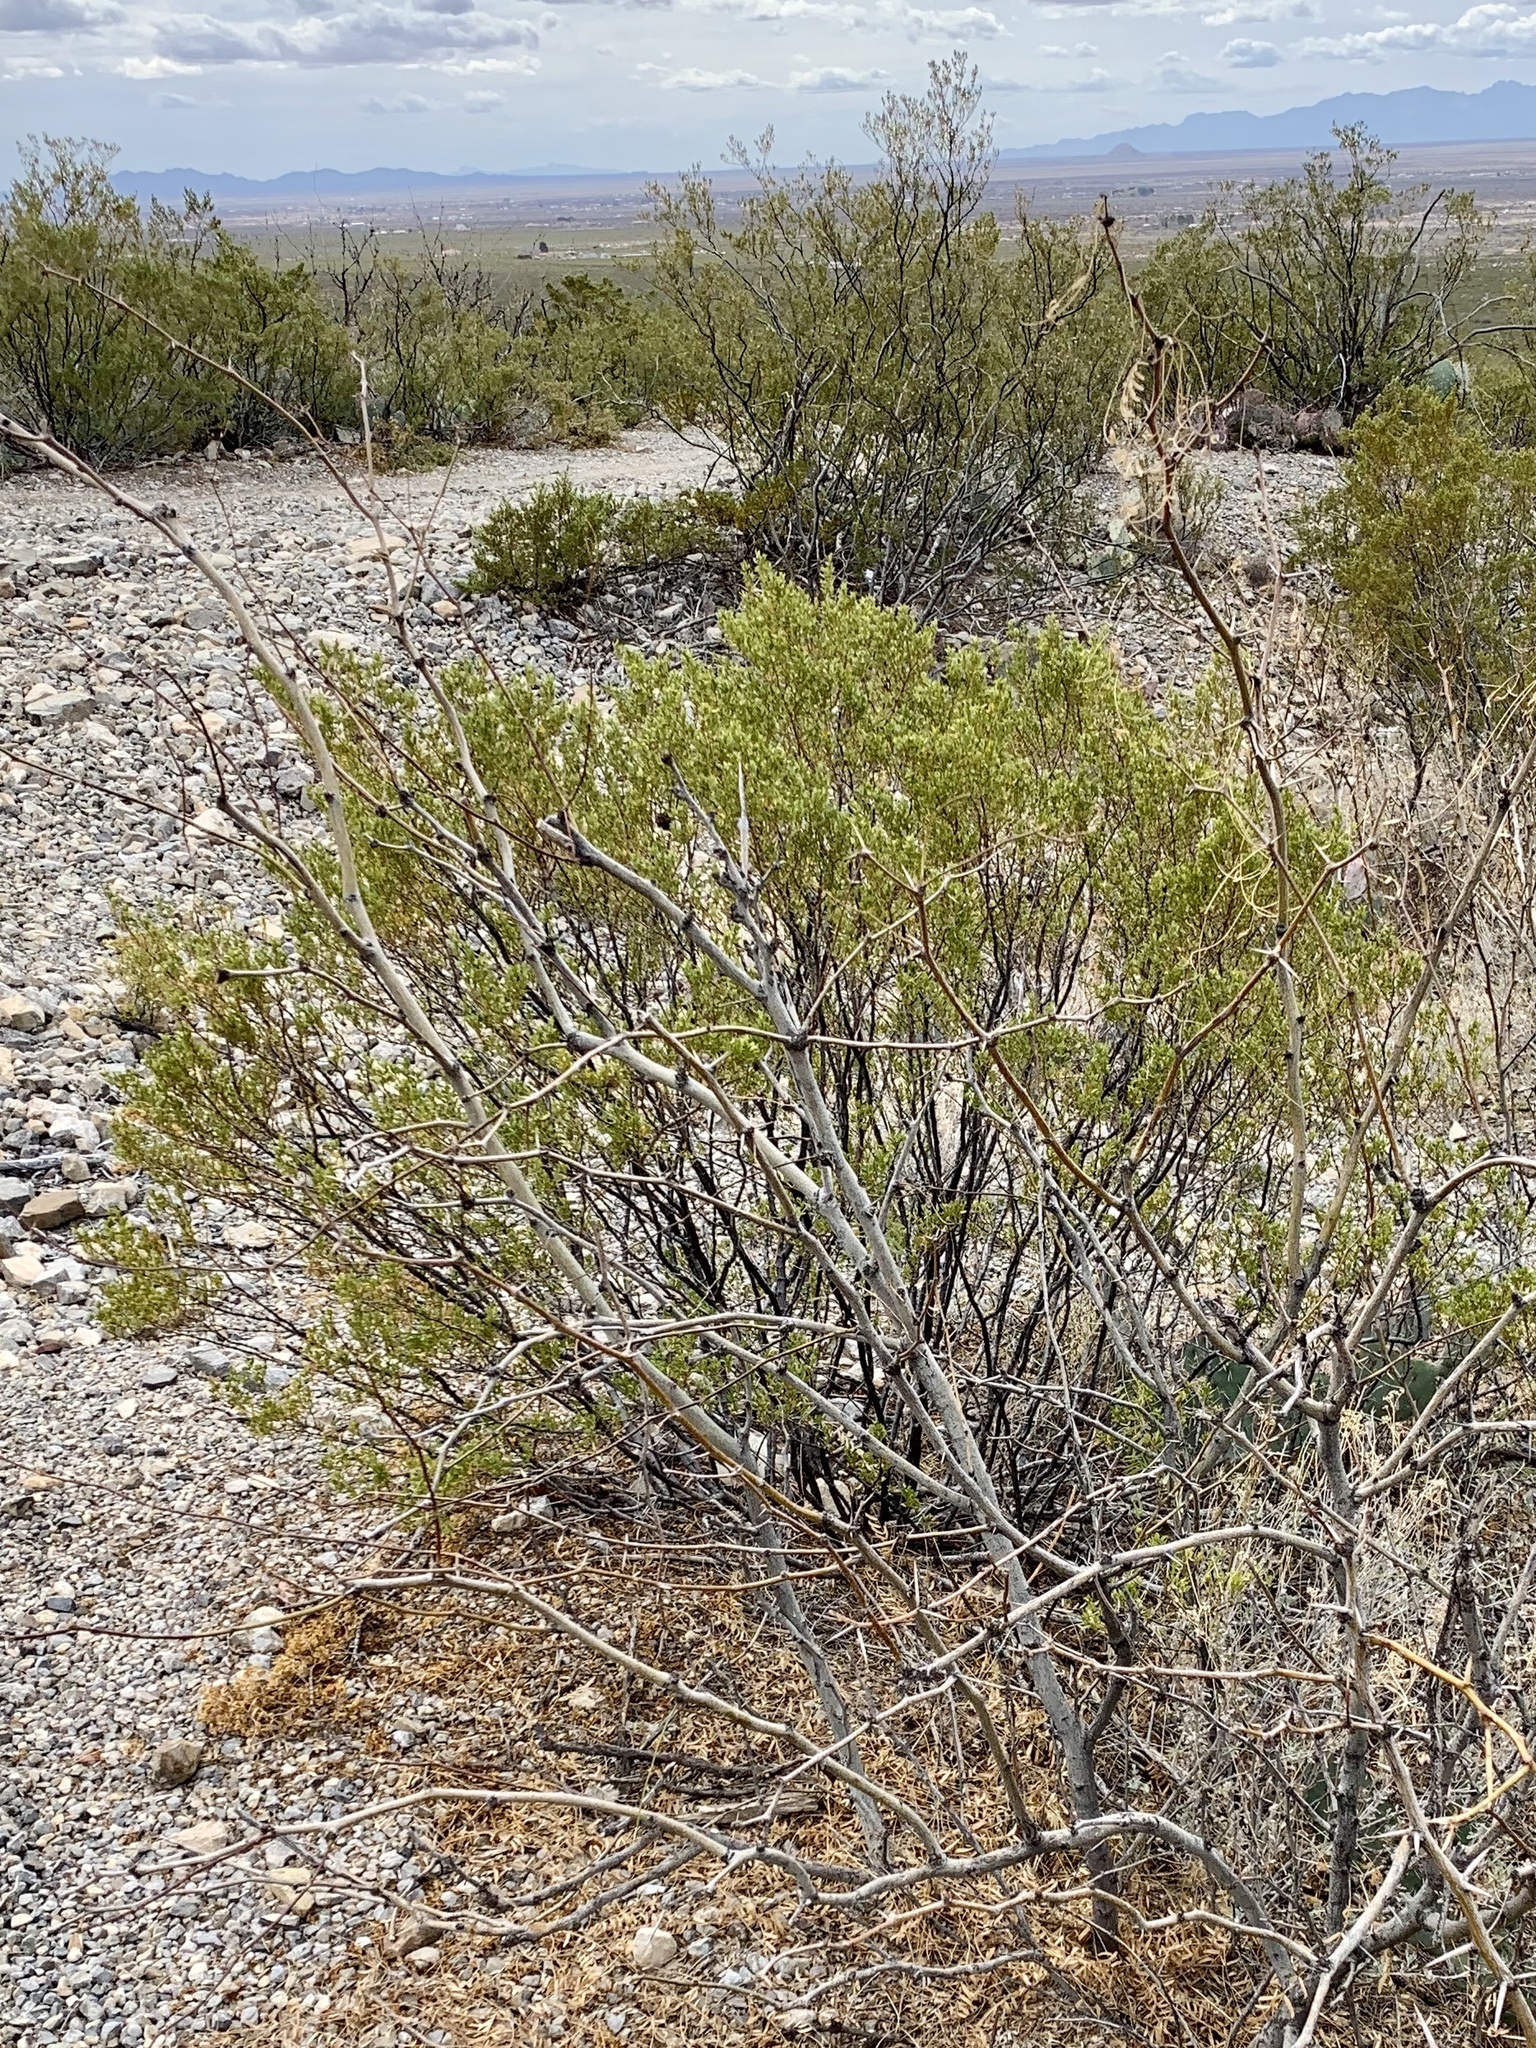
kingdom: Plantae
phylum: Tracheophyta
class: Magnoliopsida
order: Zygophyllales
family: Zygophyllaceae
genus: Larrea
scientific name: Larrea tridentata
